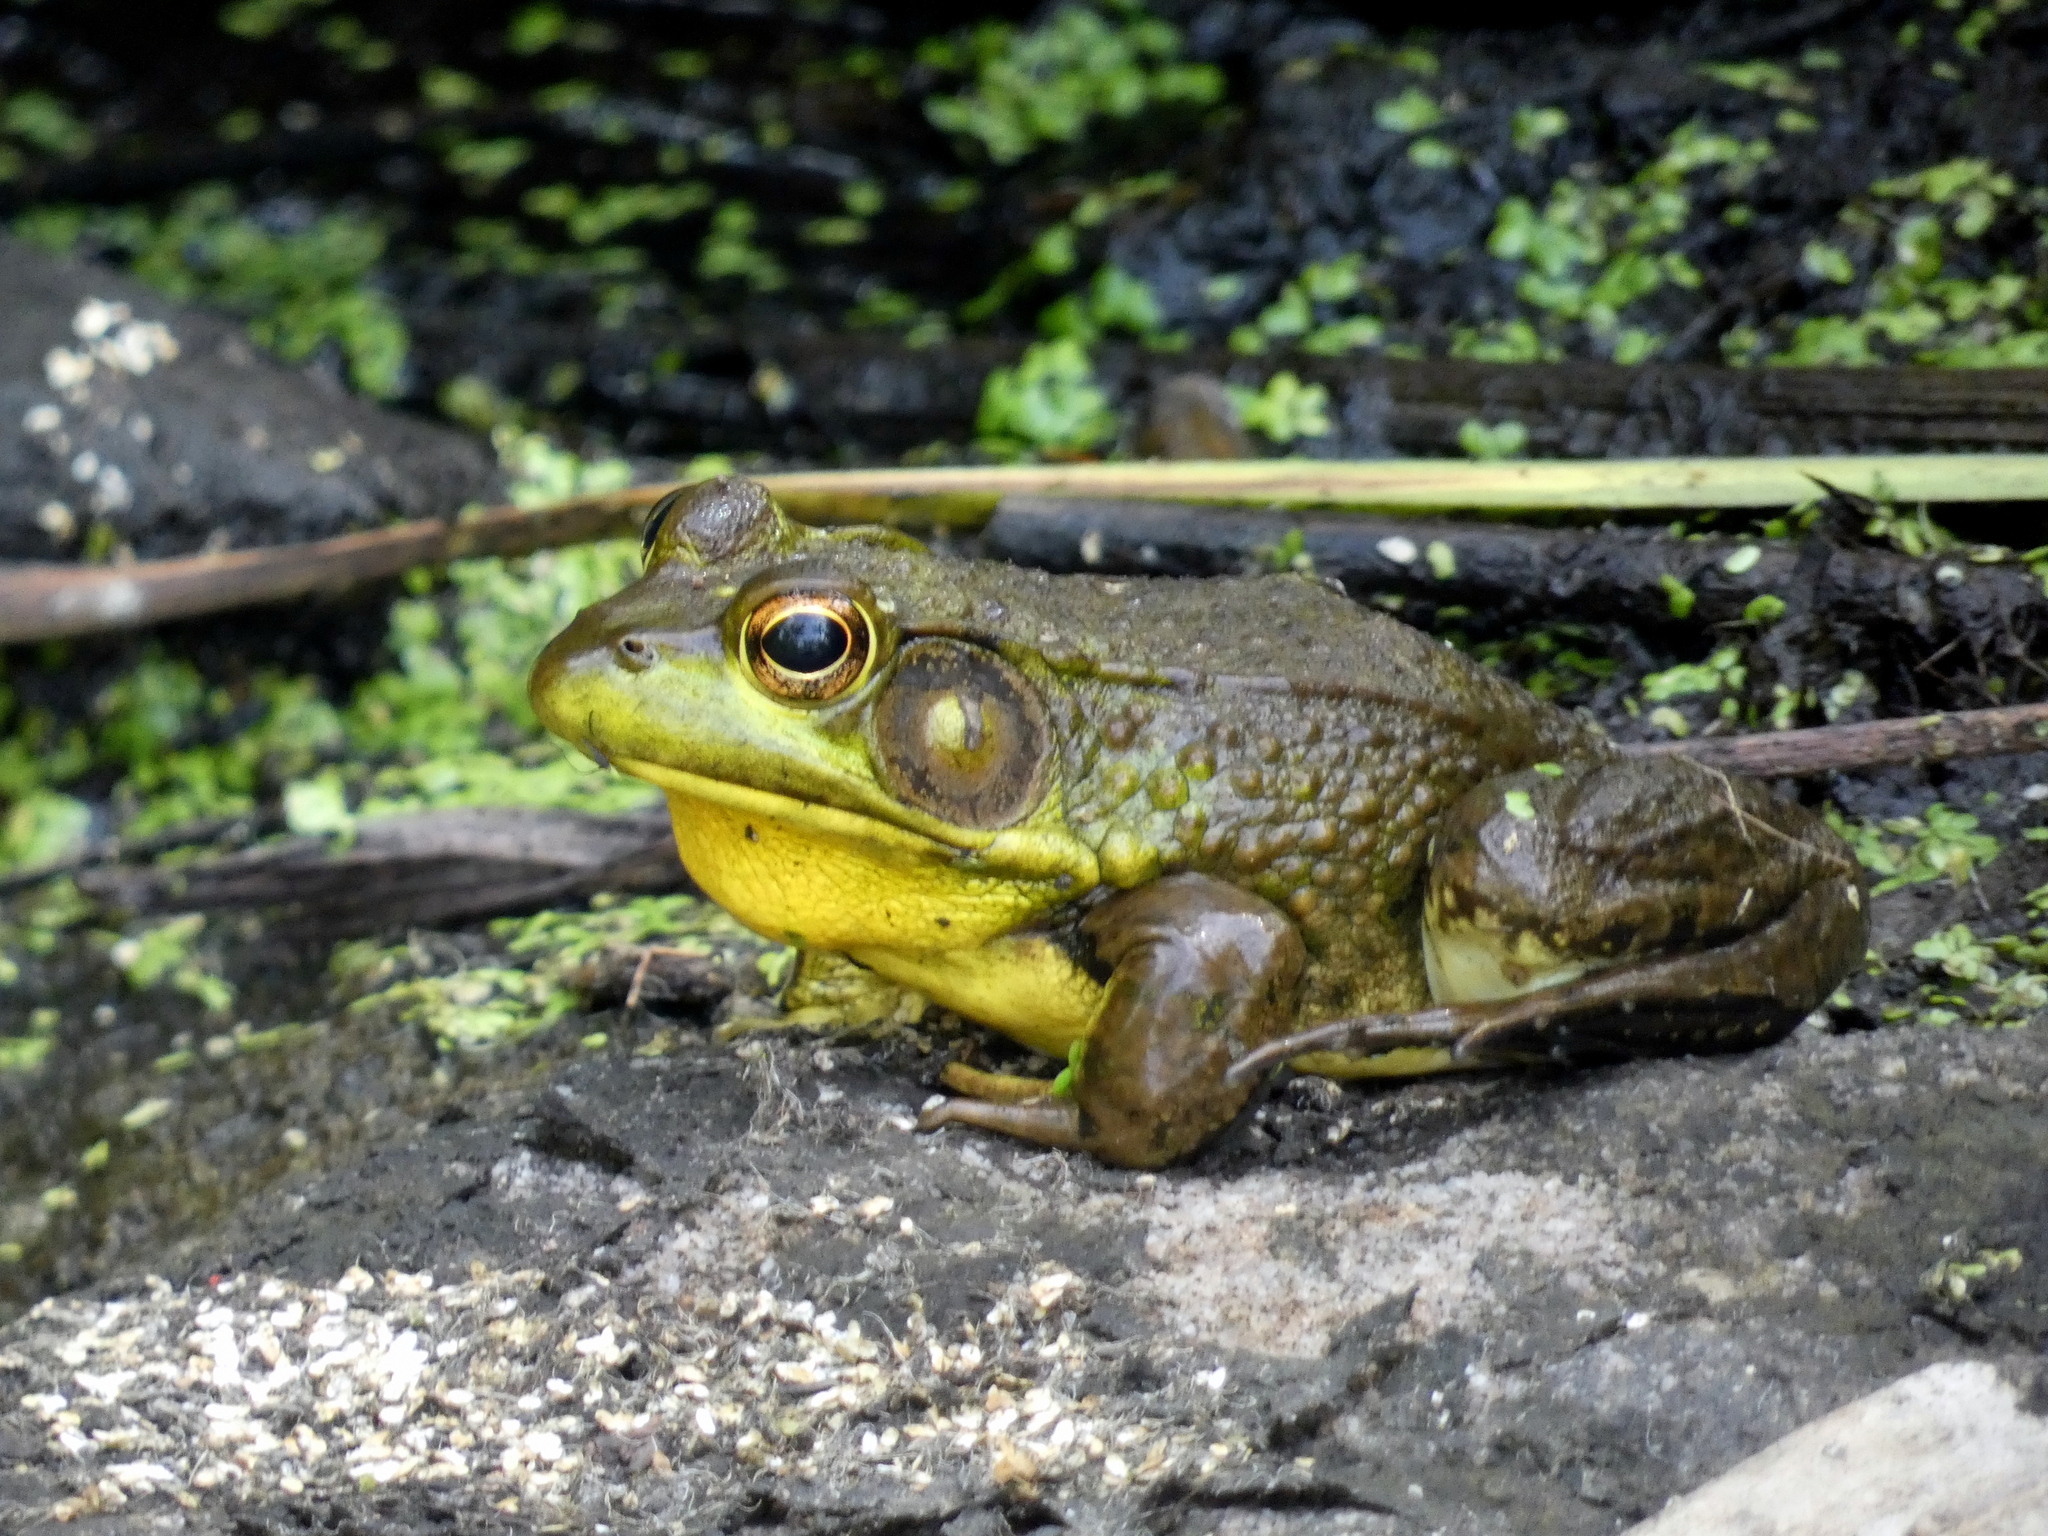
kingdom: Animalia
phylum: Chordata
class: Amphibia
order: Anura
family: Ranidae
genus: Lithobates
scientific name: Lithobates clamitans
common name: Green frog
